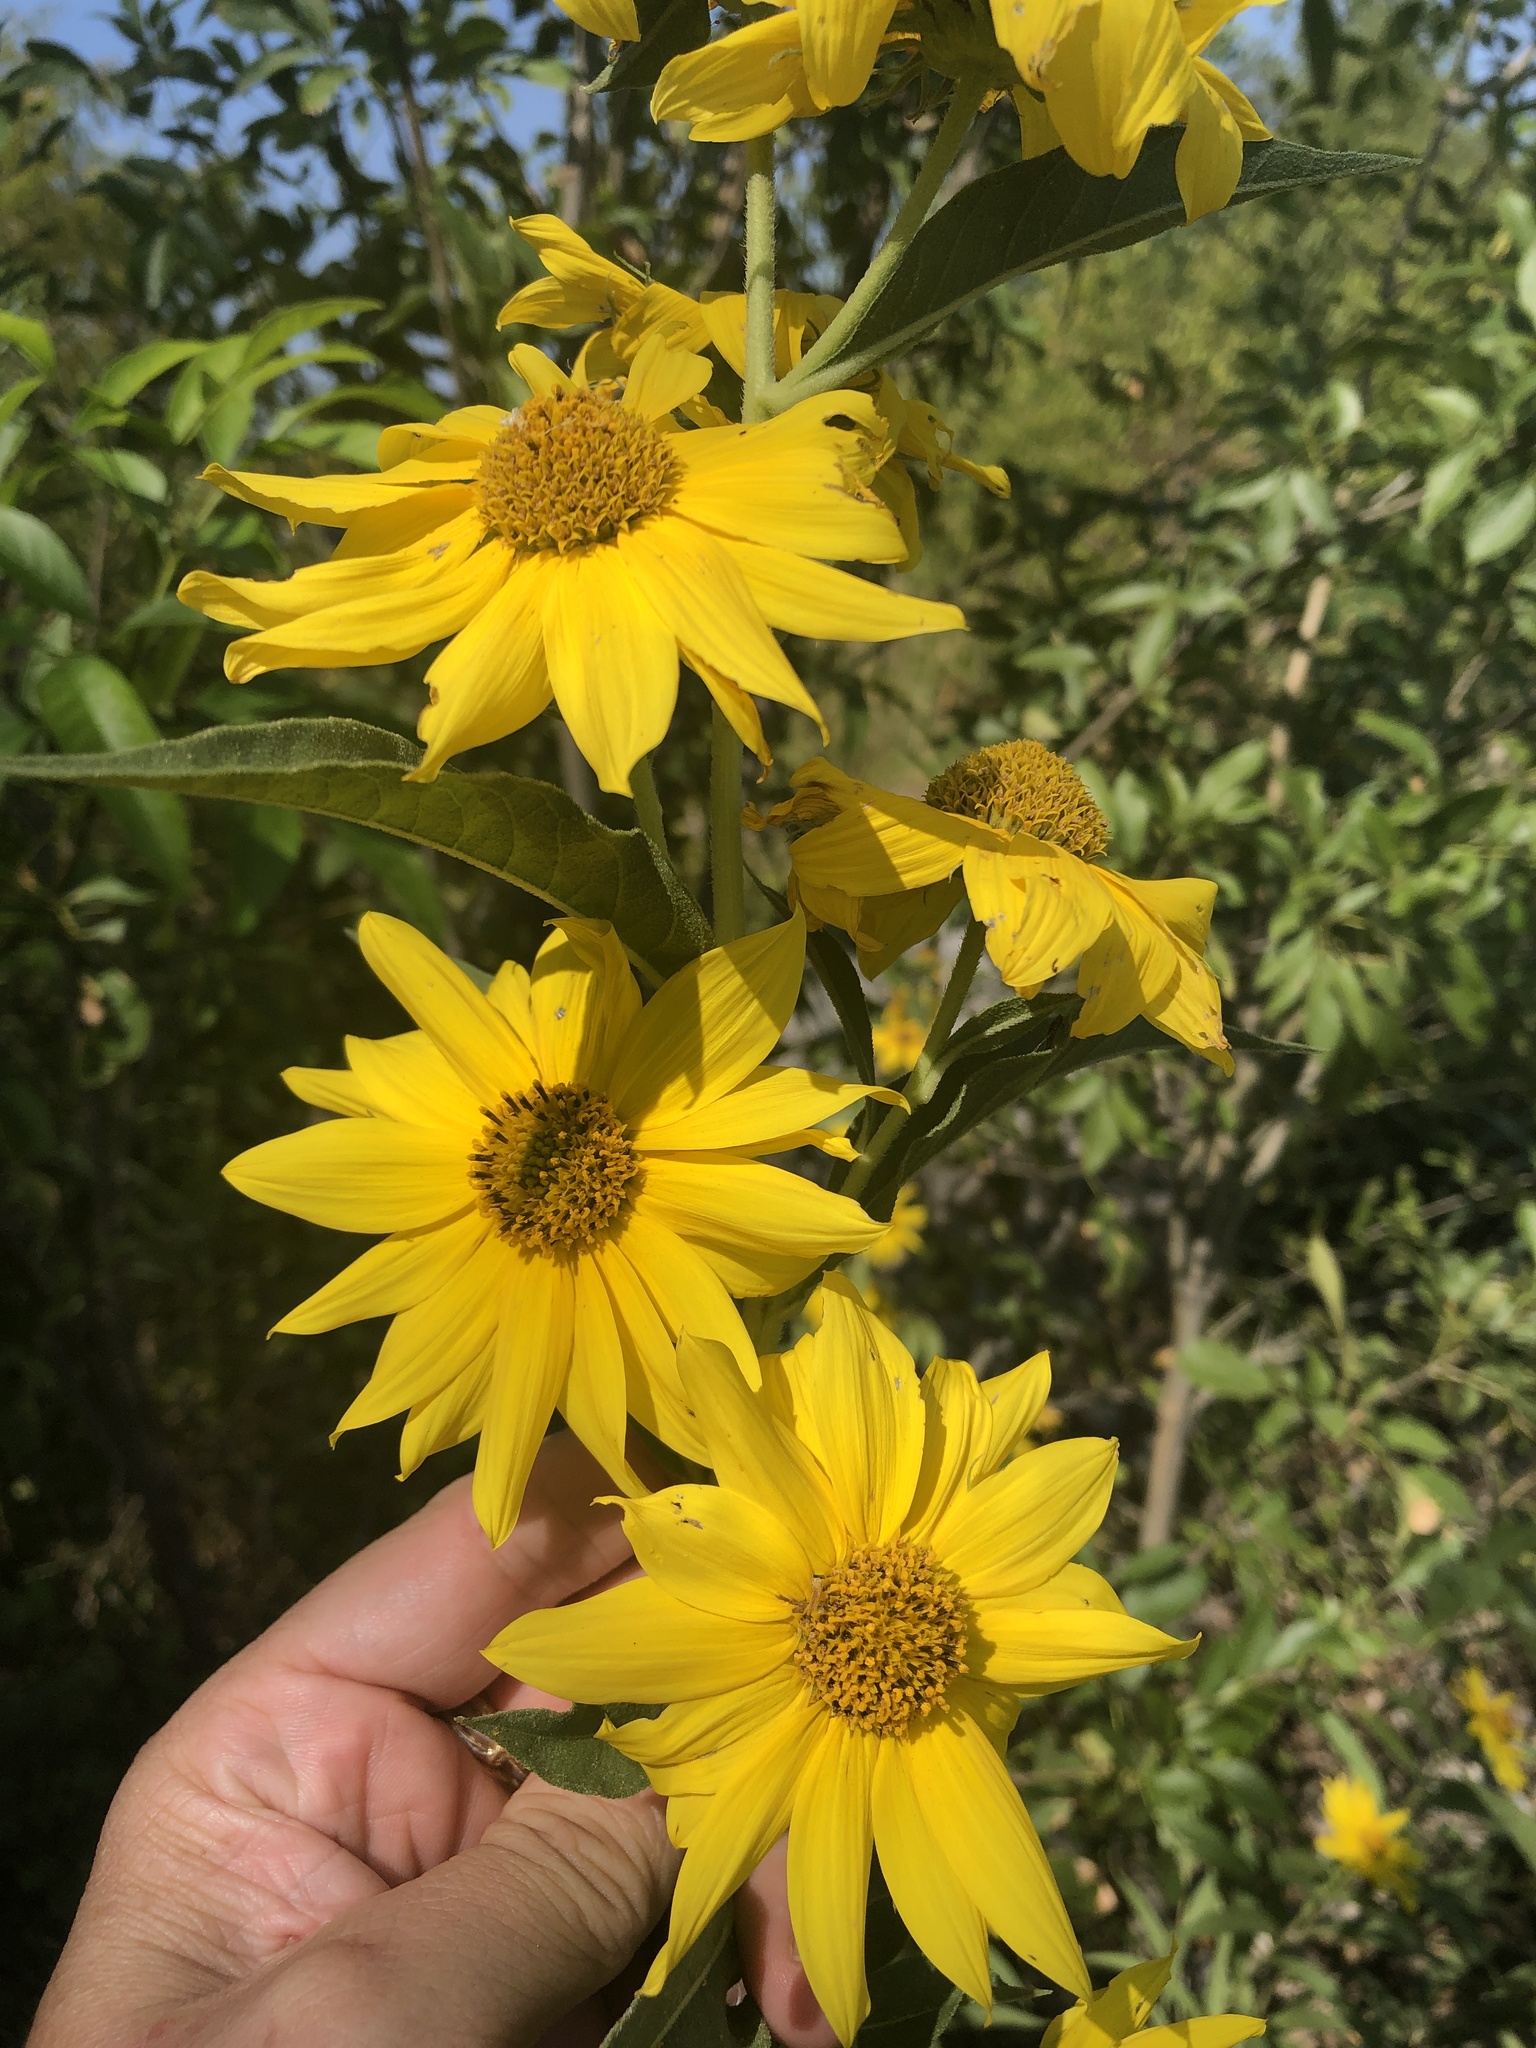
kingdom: Plantae
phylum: Tracheophyta
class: Magnoliopsida
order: Asterales
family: Asteraceae
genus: Helianthus
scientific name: Helianthus maximiliani
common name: Maximilian's sunflower
